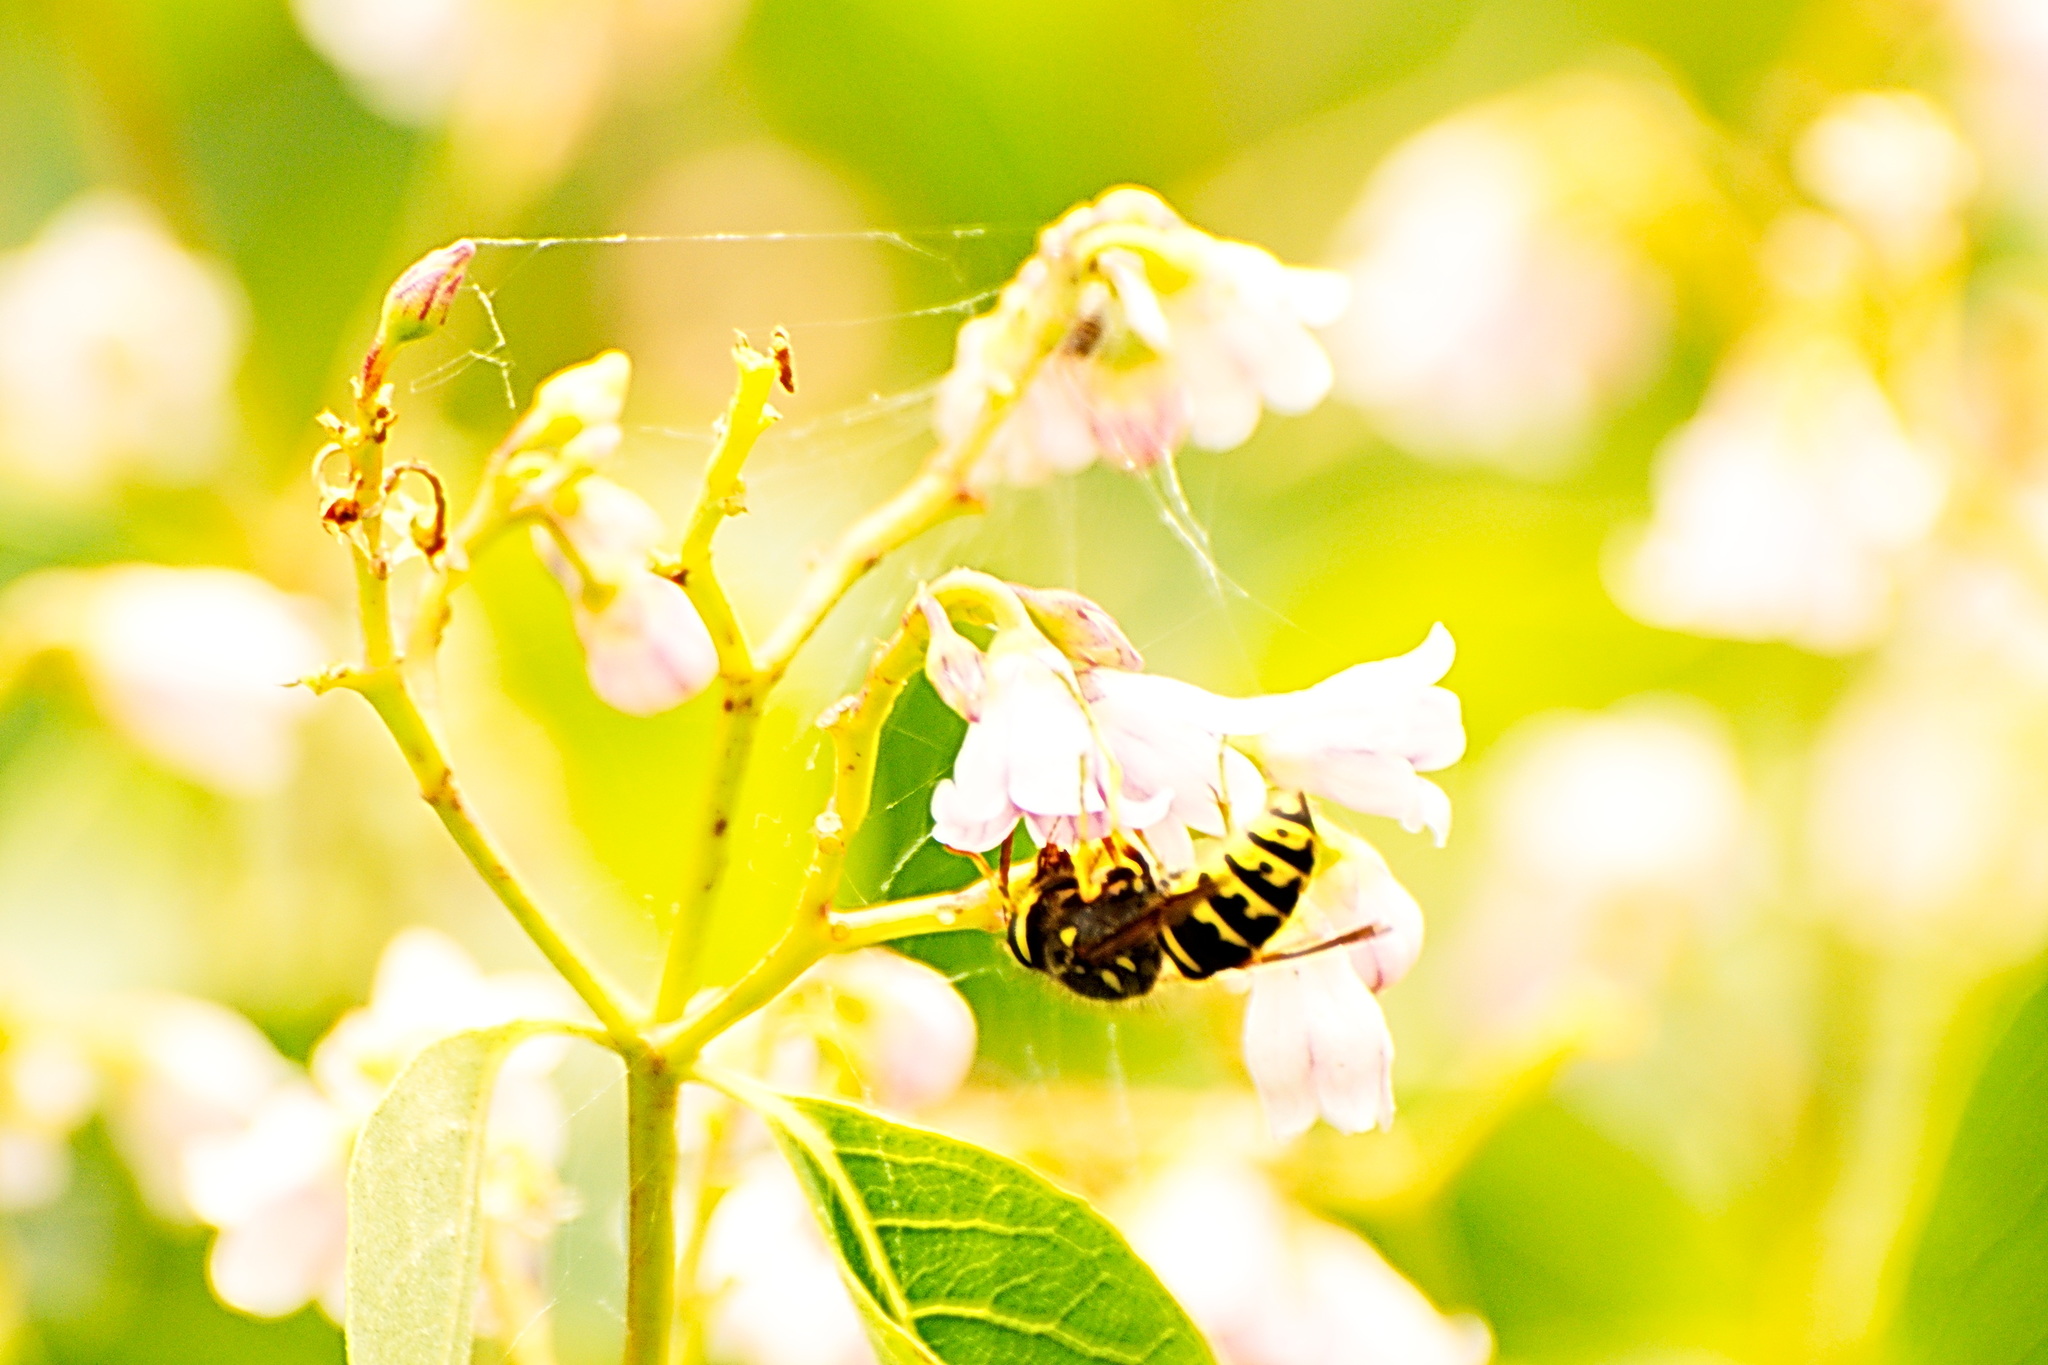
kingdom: Animalia
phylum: Arthropoda
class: Insecta
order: Hymenoptera
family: Vespidae
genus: Dolichovespula
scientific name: Dolichovespula arenaria
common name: Aerial yellowjacket
